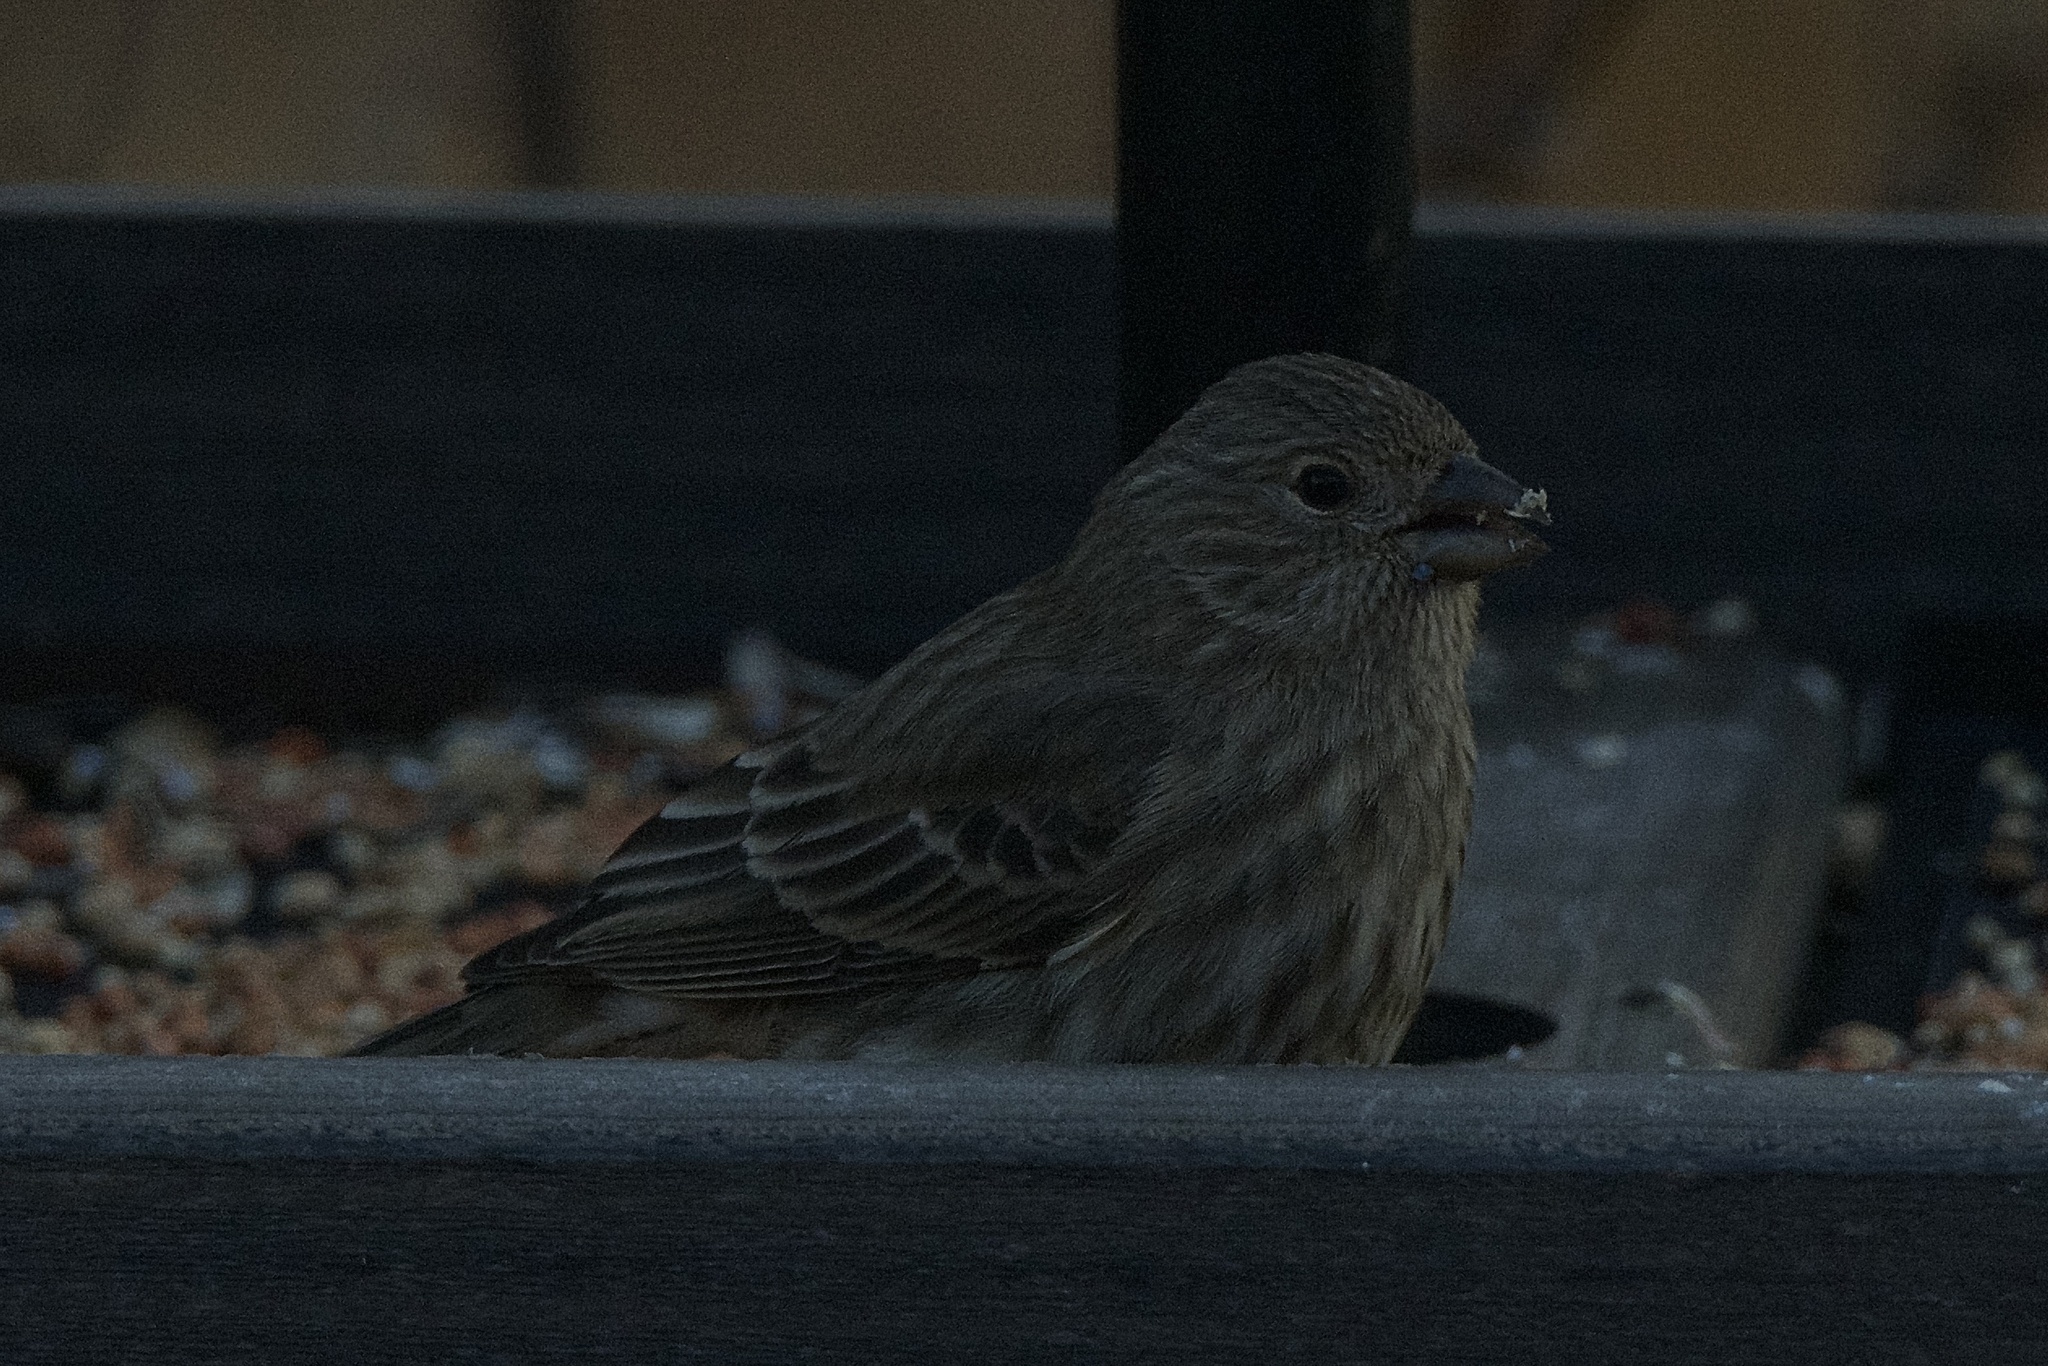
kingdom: Animalia
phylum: Chordata
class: Aves
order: Passeriformes
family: Fringillidae
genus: Haemorhous
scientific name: Haemorhous mexicanus
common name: House finch
